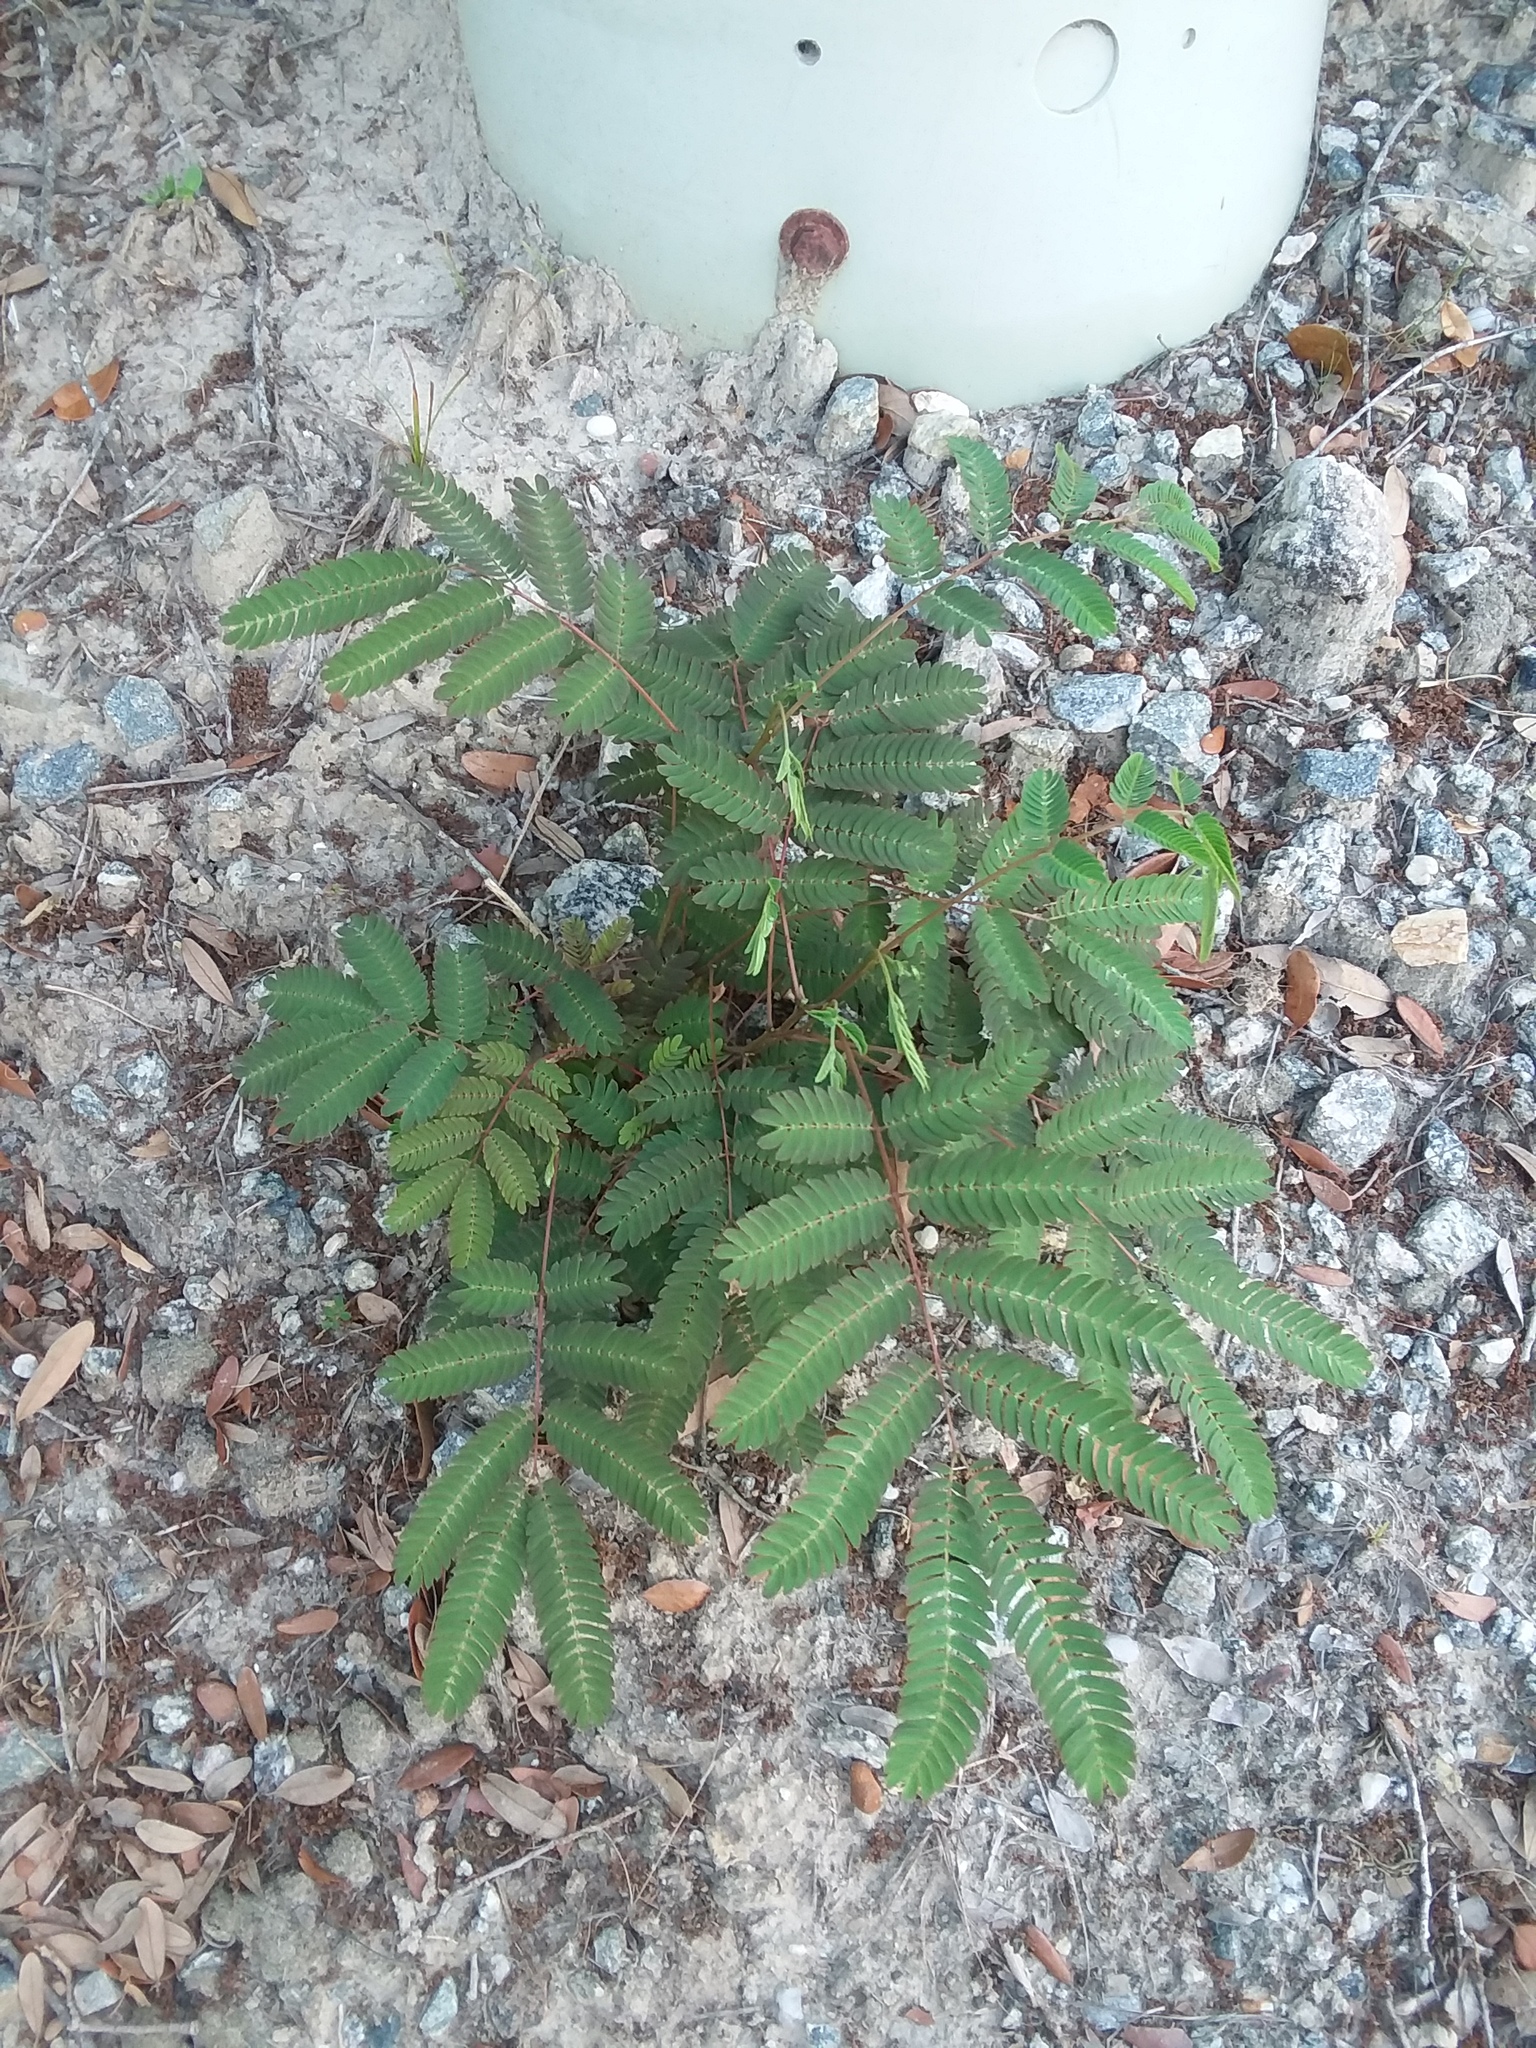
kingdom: Plantae
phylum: Tracheophyta
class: Magnoliopsida
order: Fabales
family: Fabaceae
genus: Albizia
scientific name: Albizia julibrissin
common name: Silktree
